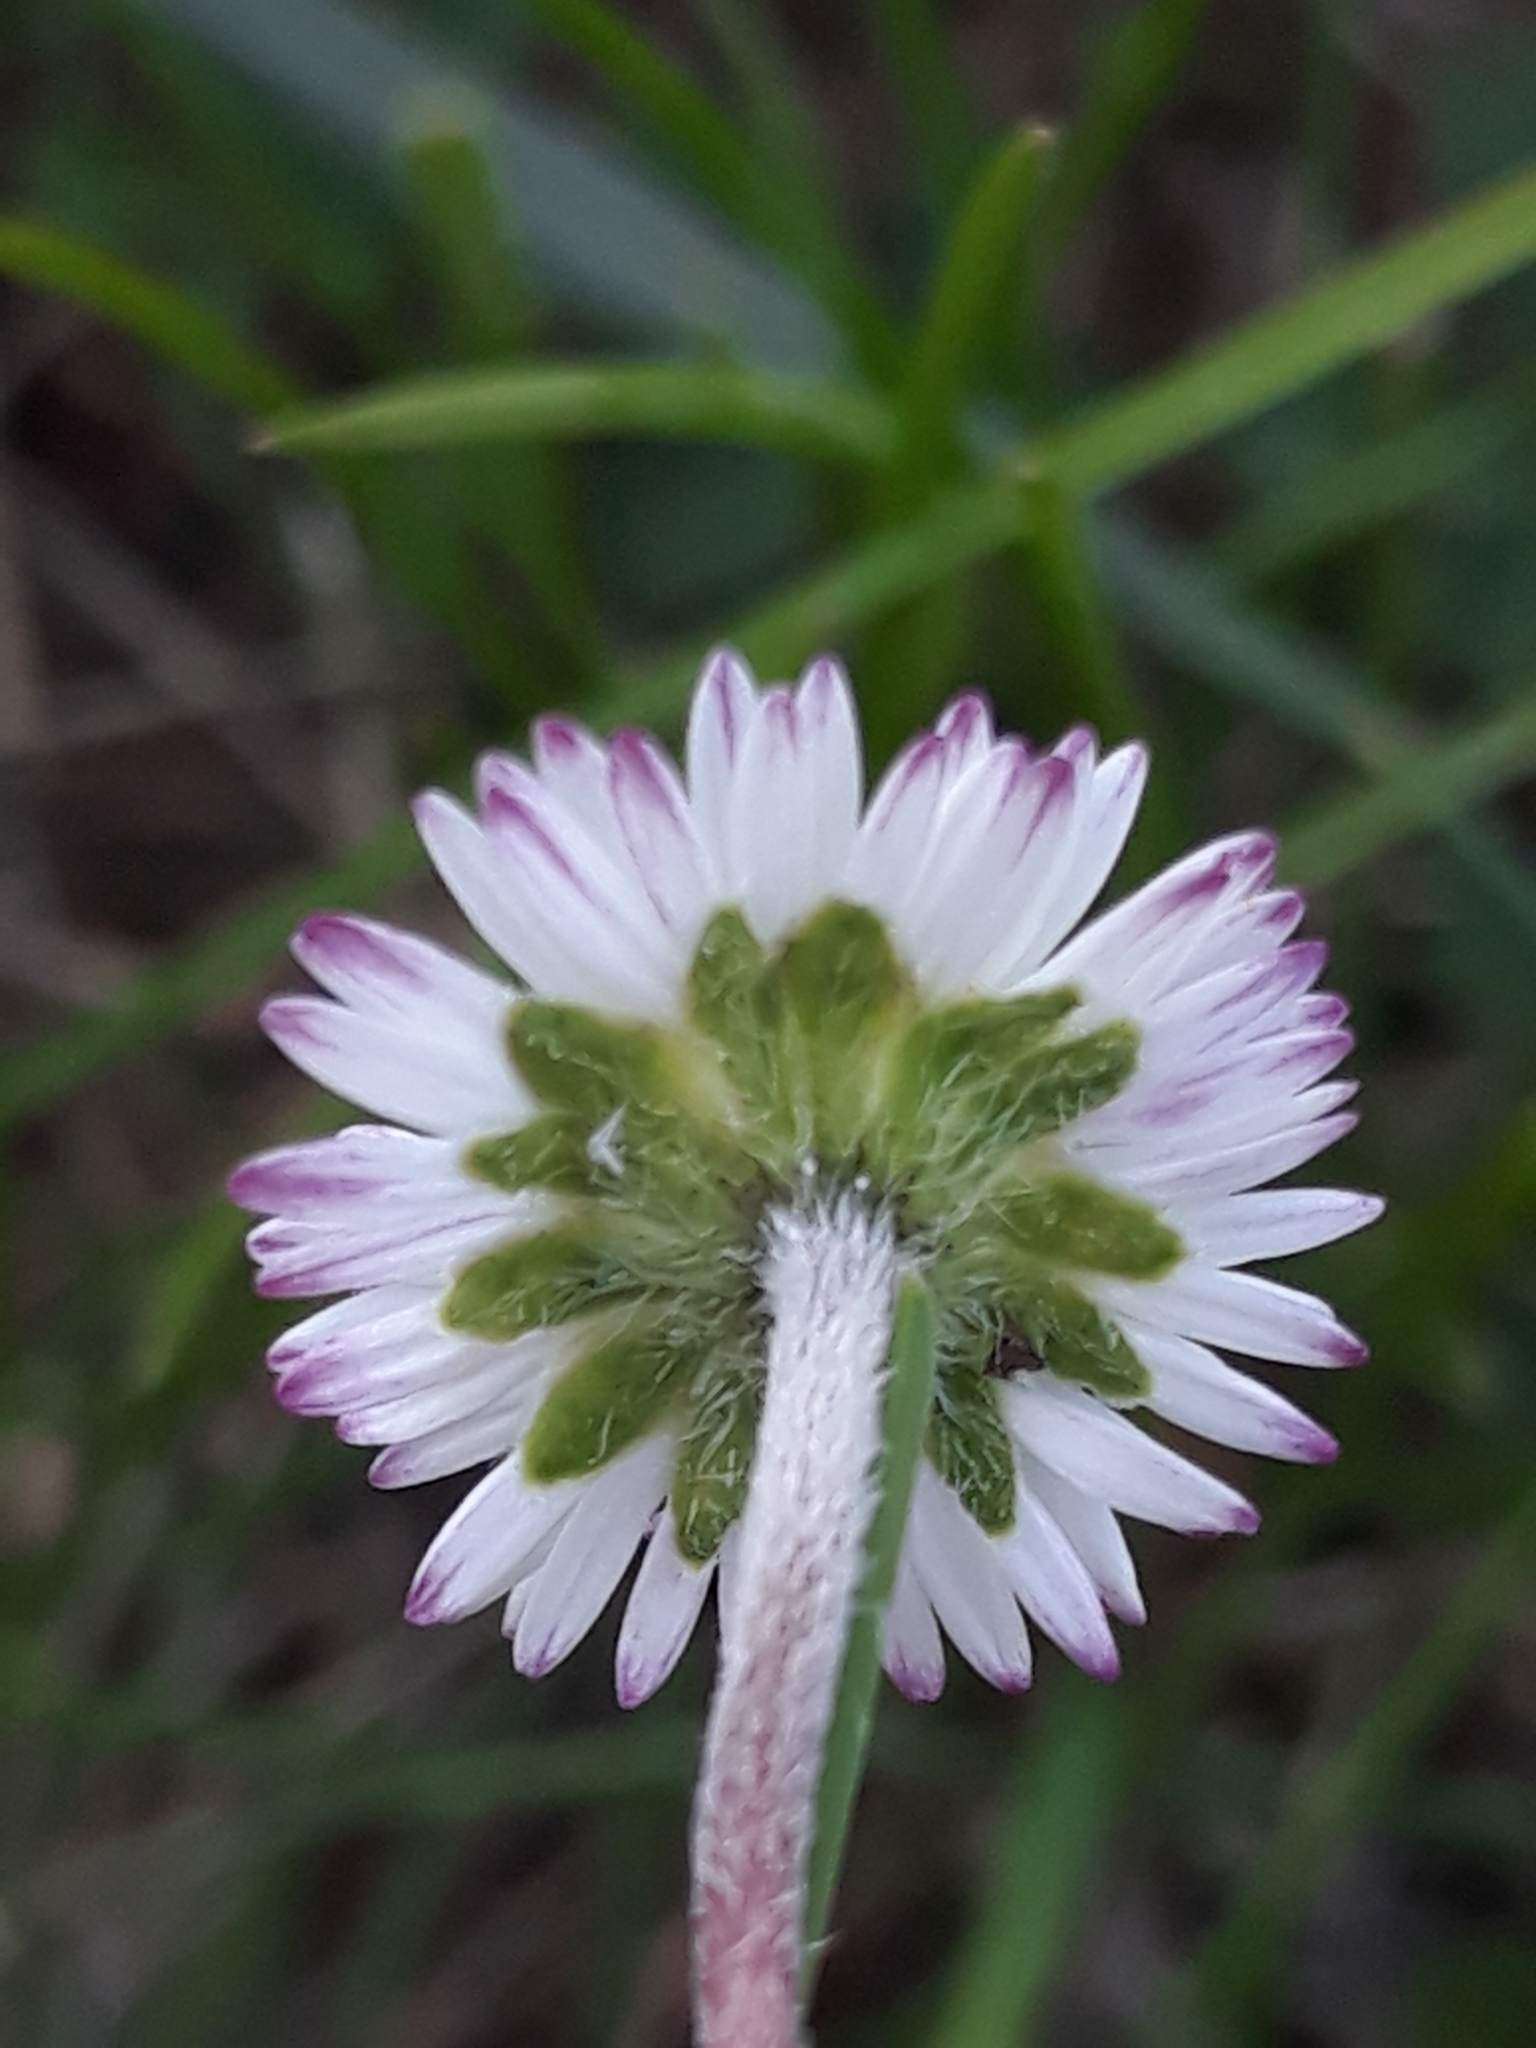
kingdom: Plantae
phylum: Tracheophyta
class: Magnoliopsida
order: Asterales
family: Asteraceae
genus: Bellis
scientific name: Bellis perennis
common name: Lawndaisy
